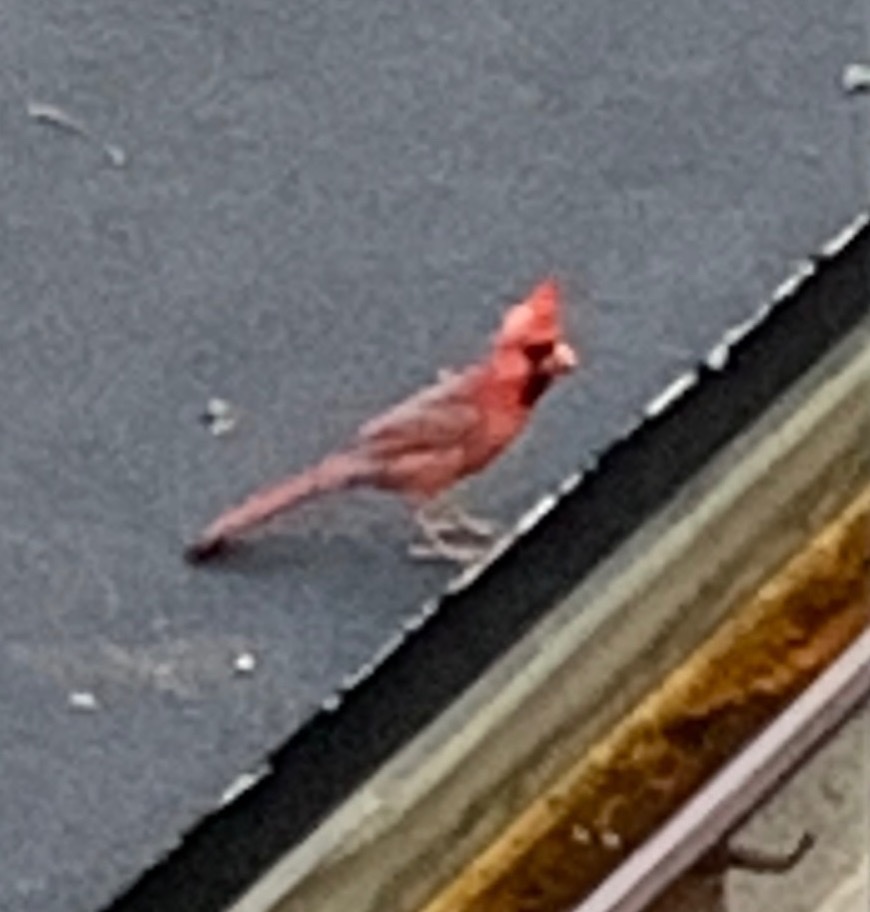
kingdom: Animalia
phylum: Chordata
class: Aves
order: Passeriformes
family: Cardinalidae
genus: Cardinalis
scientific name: Cardinalis cardinalis
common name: Northern cardinal
